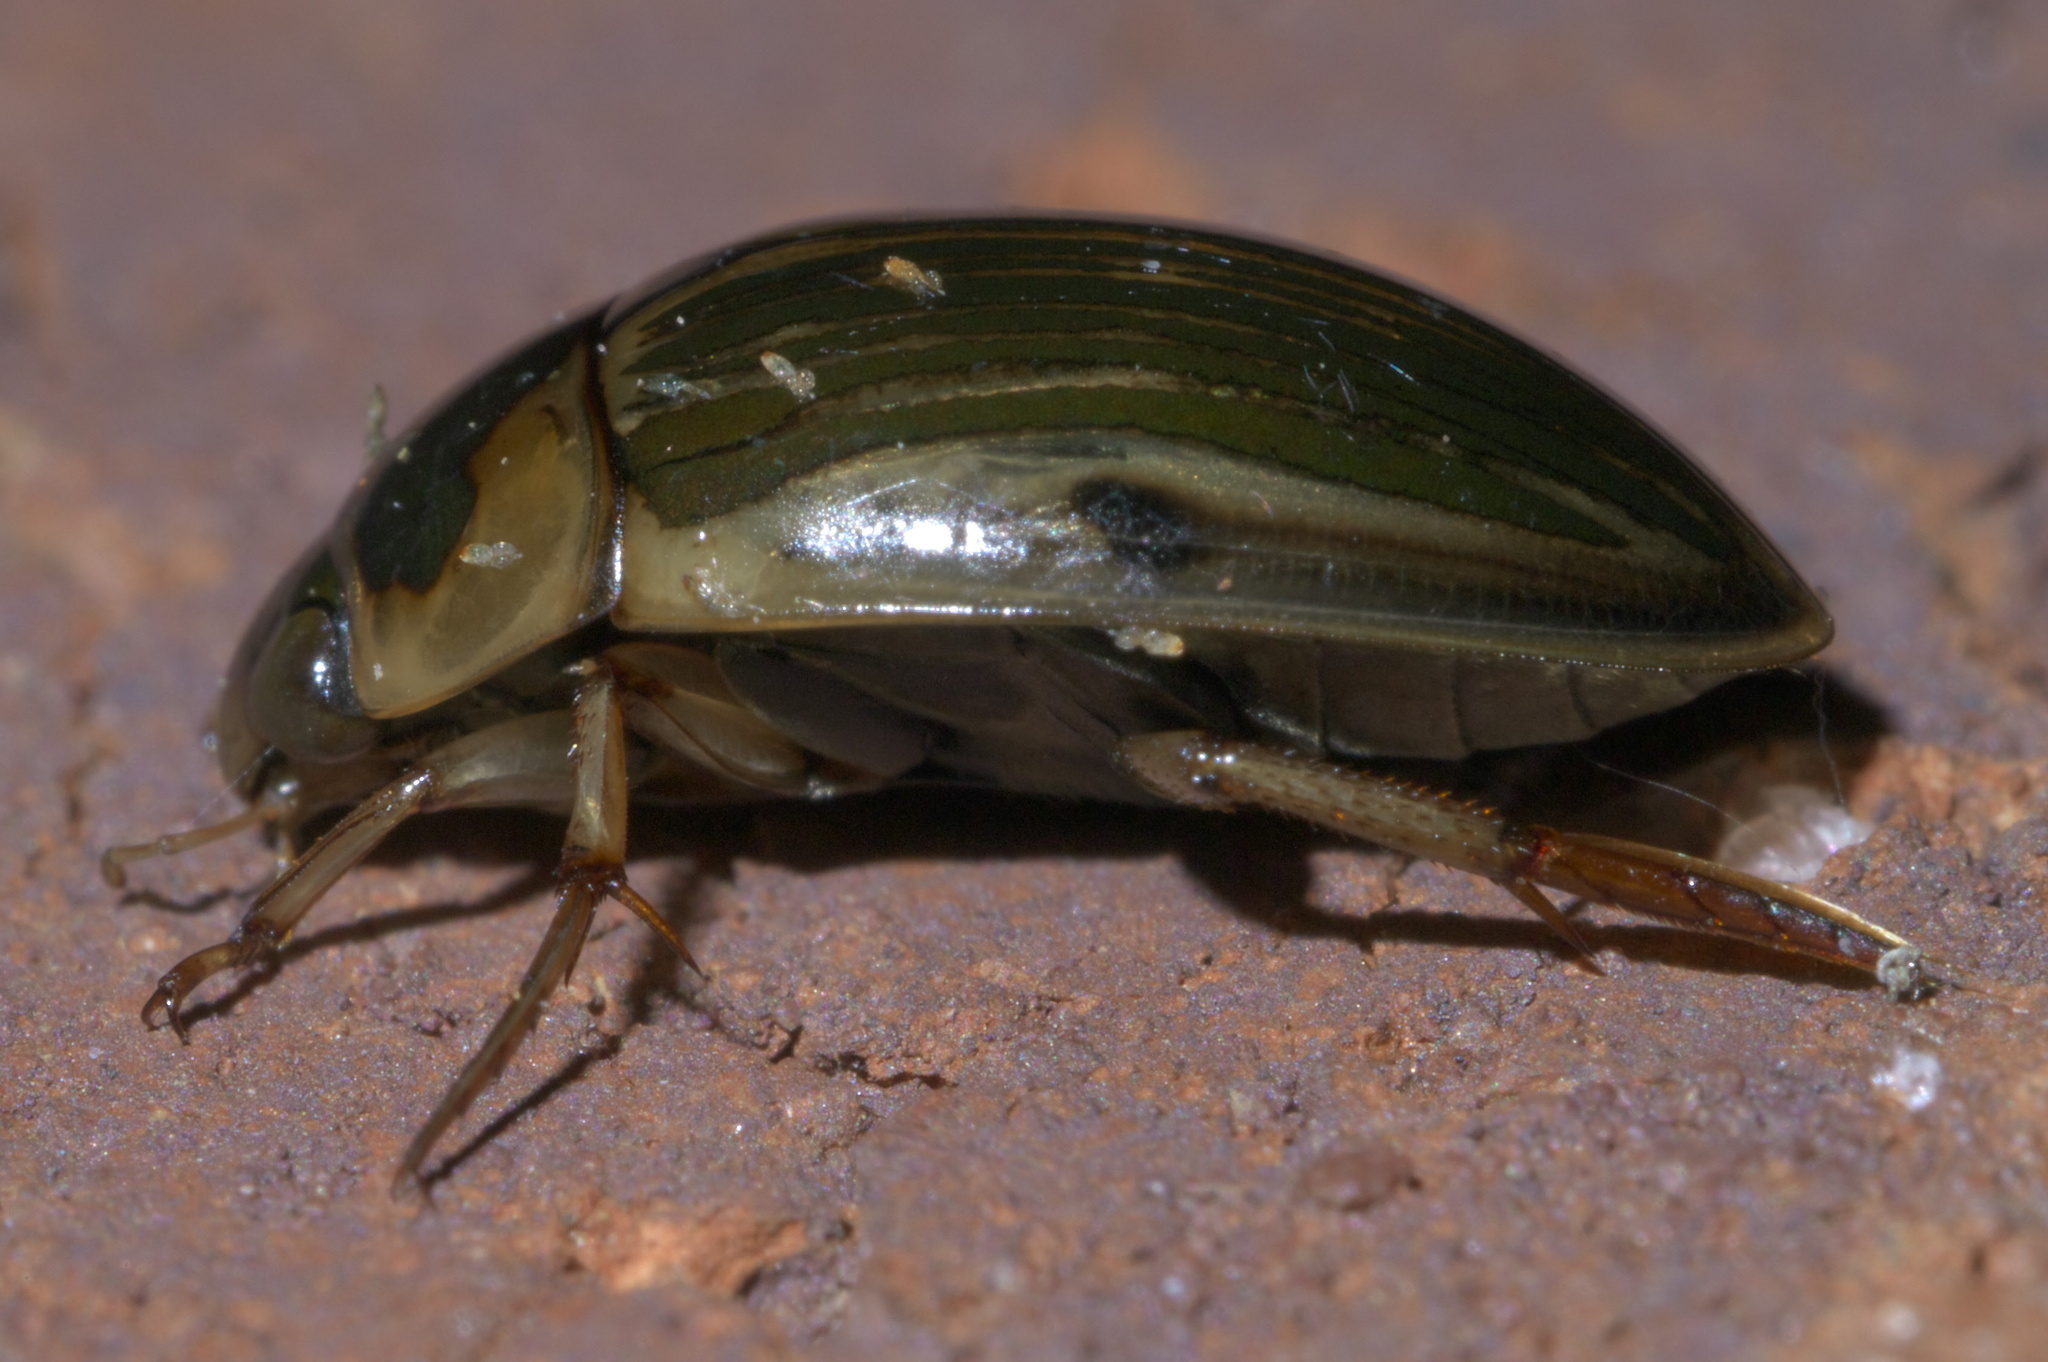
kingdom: Animalia
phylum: Arthropoda
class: Insecta
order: Coleoptera
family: Hydrophilidae
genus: Tropisternus
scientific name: Tropisternus collaris
